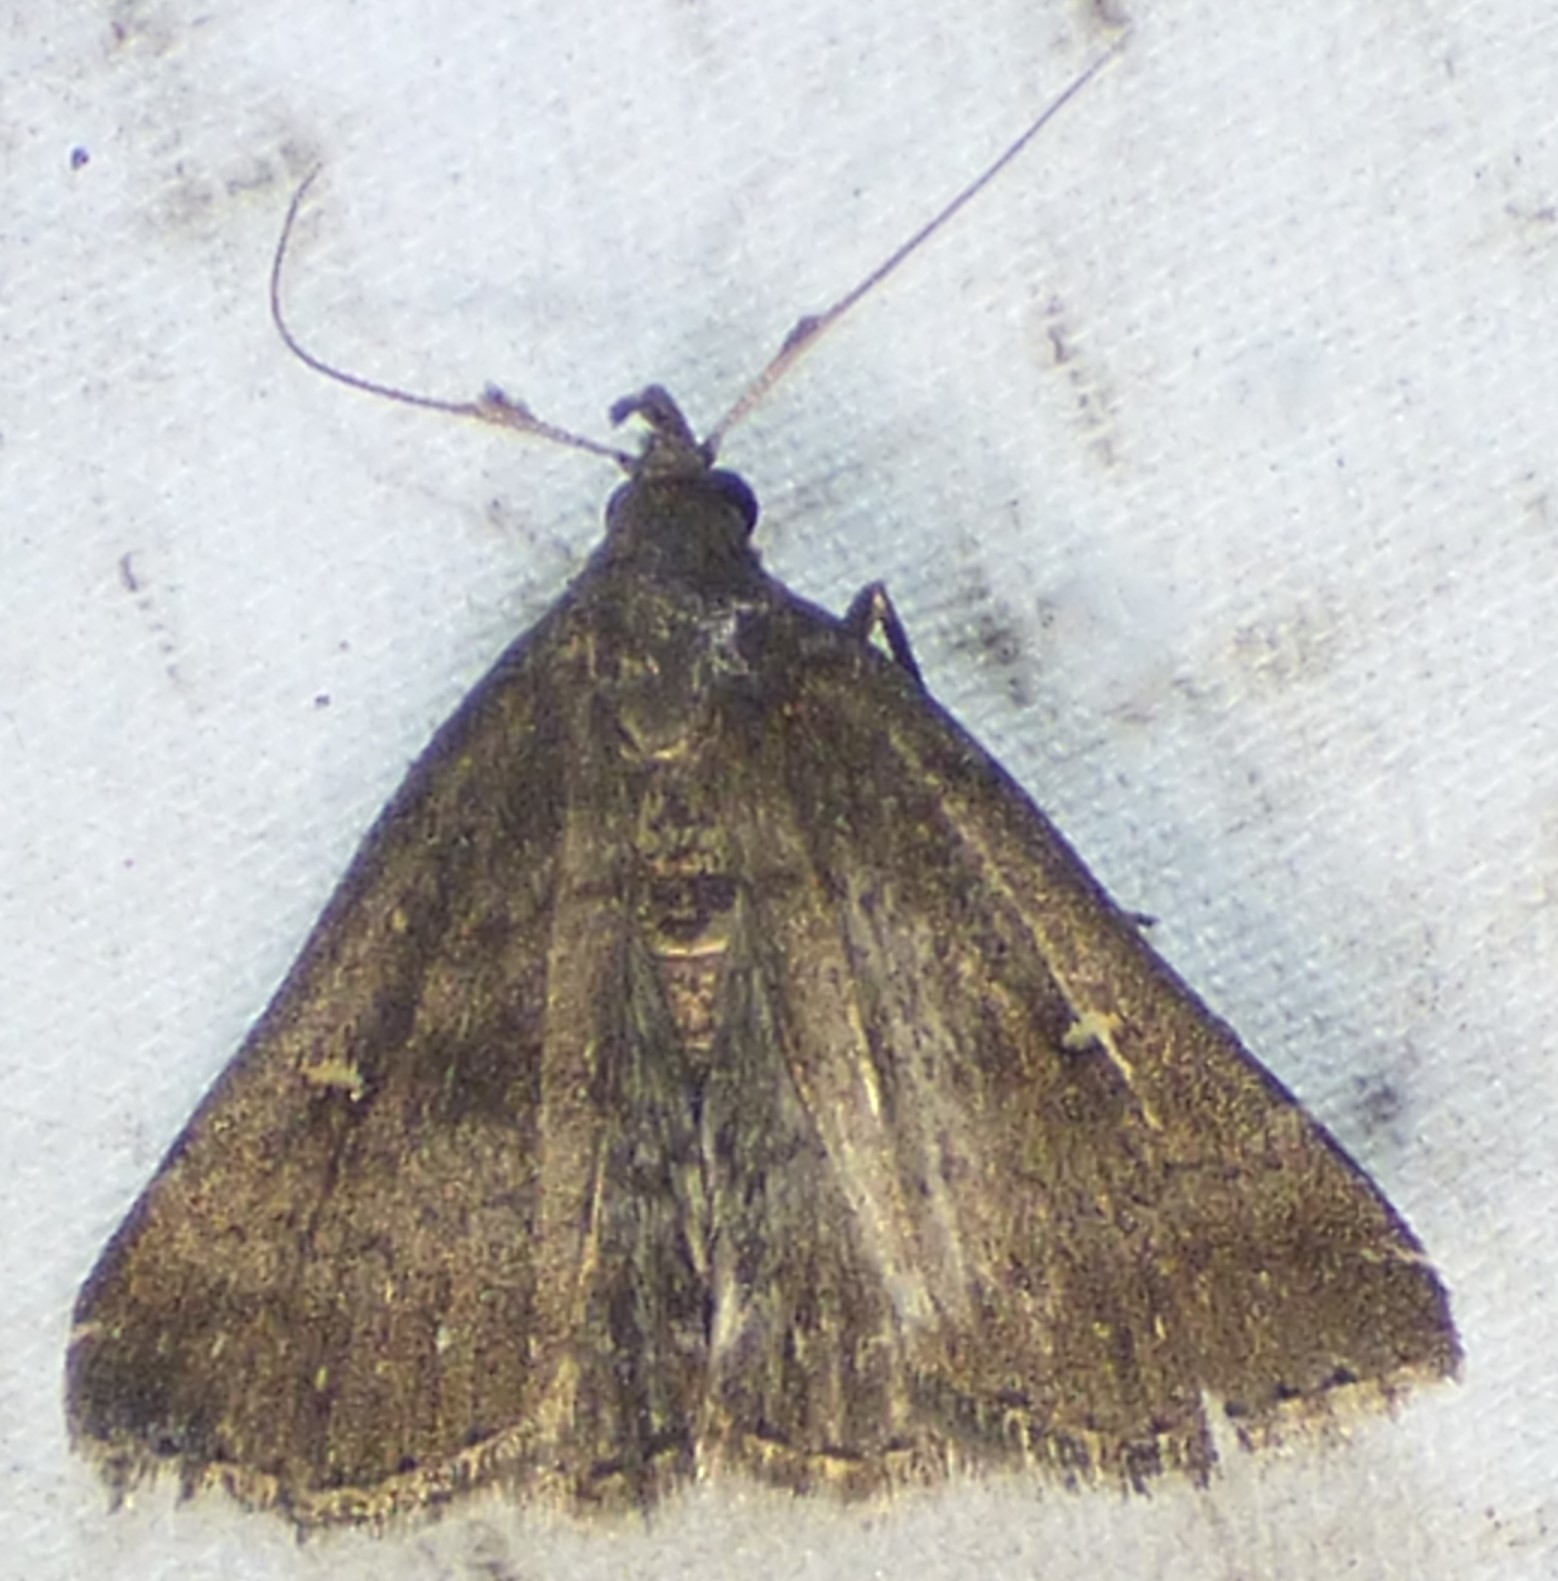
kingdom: Animalia
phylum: Arthropoda
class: Insecta
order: Lepidoptera
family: Erebidae
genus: Tetanolita
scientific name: Tetanolita mynesalis
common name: Smoky tetanolita moth
